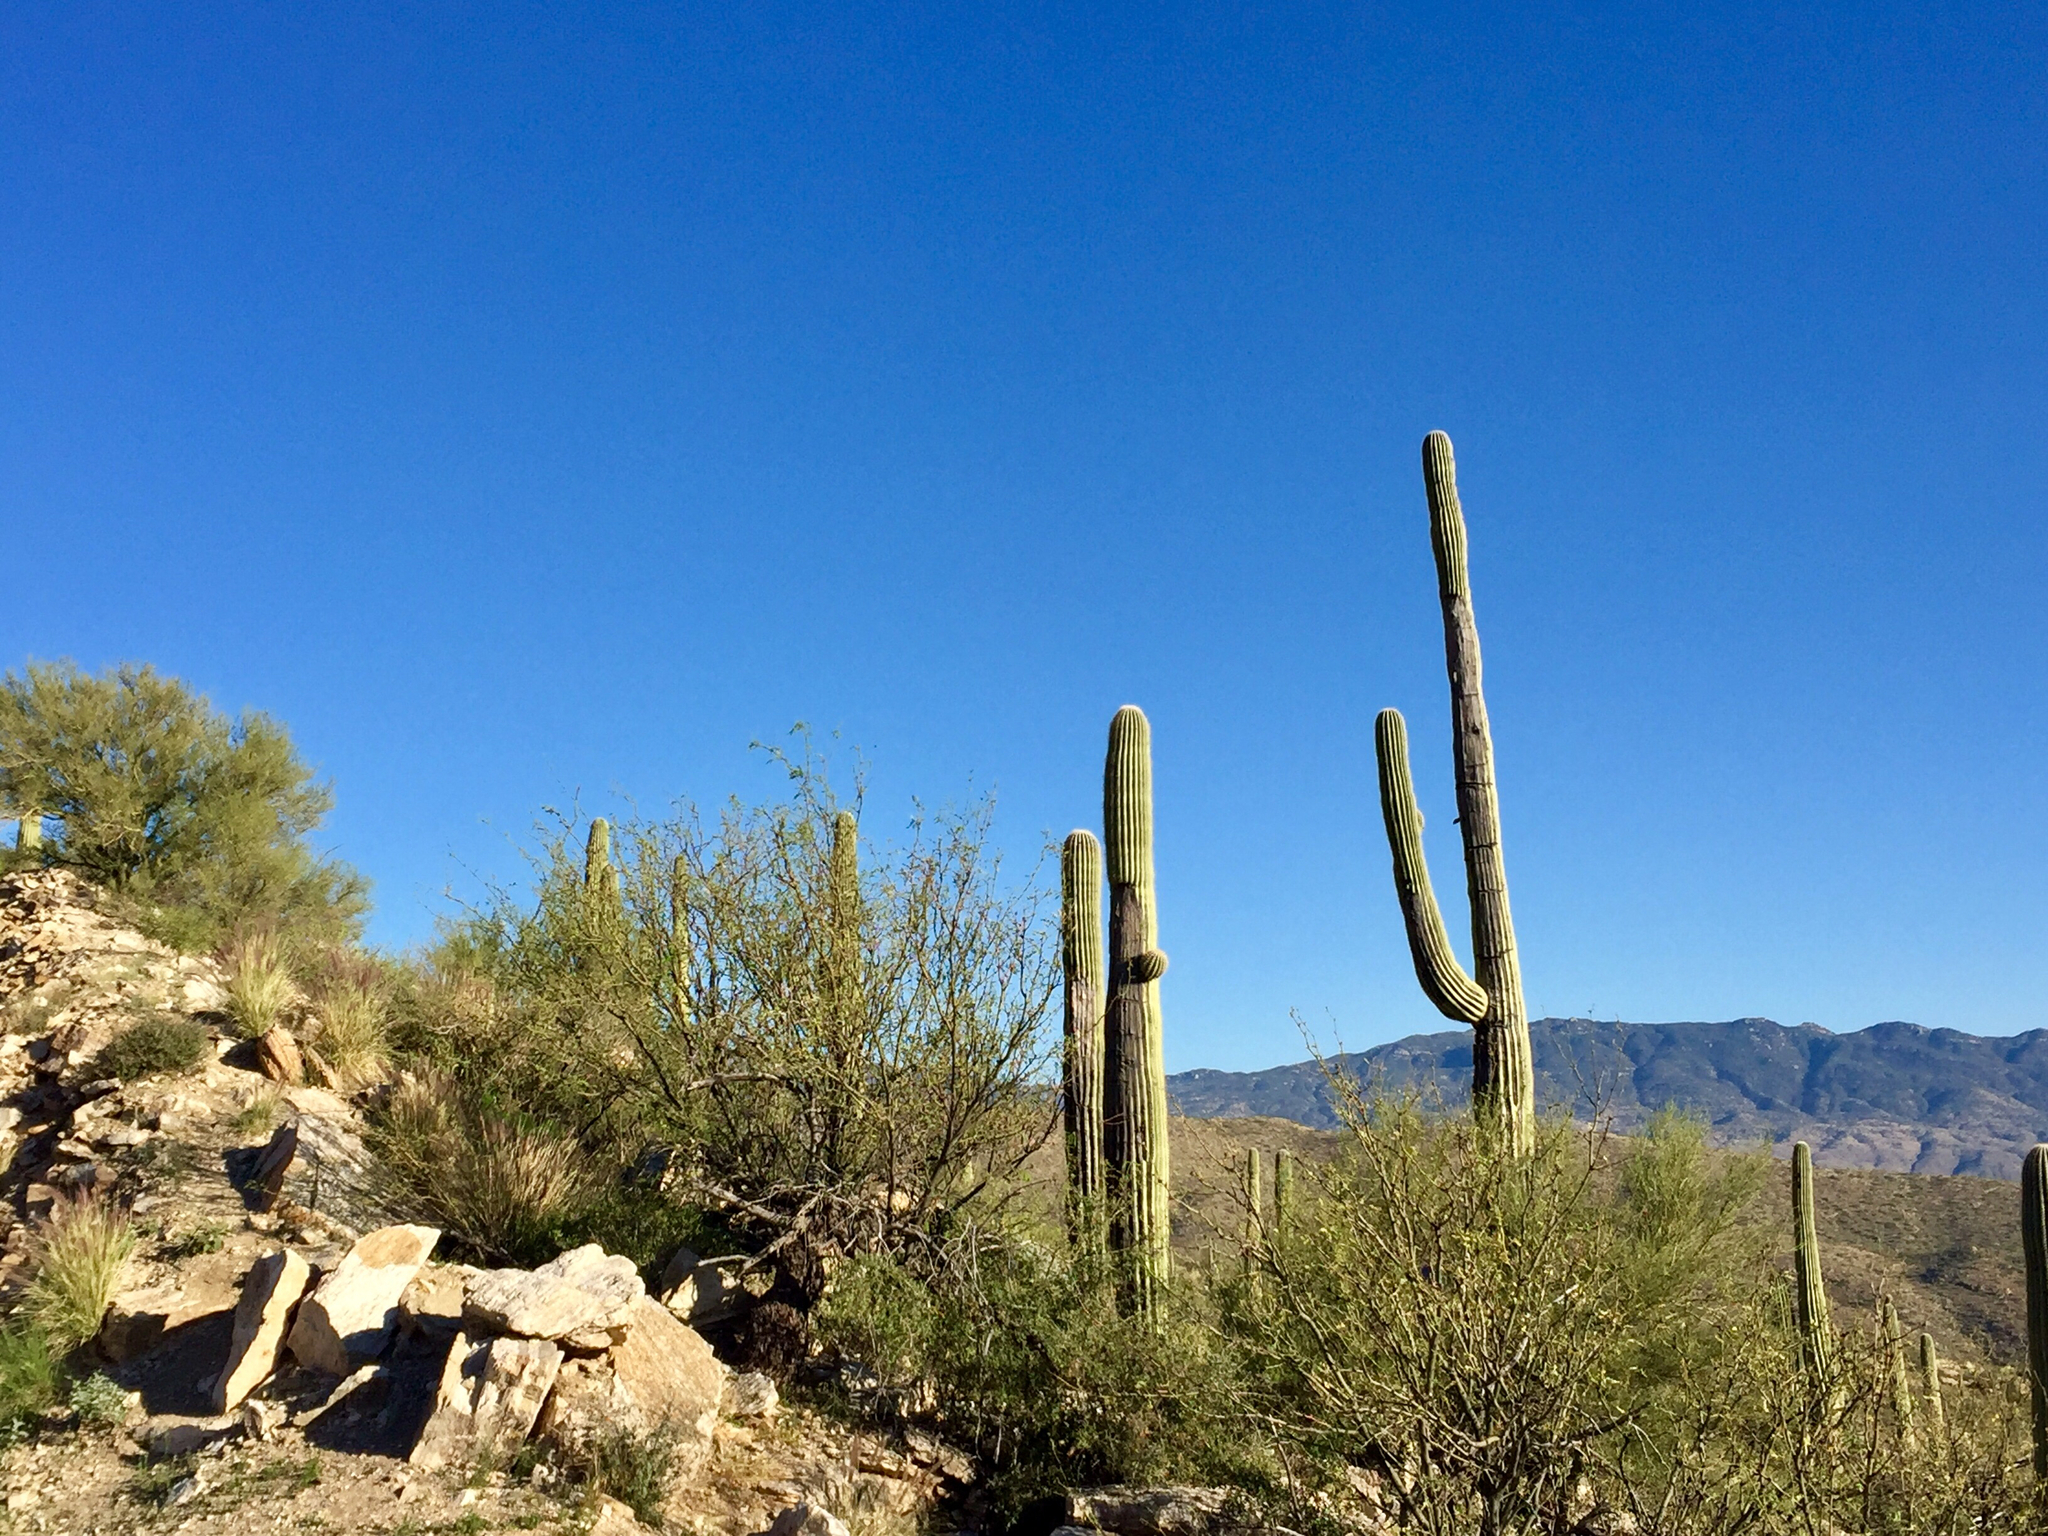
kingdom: Plantae
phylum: Tracheophyta
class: Magnoliopsida
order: Caryophyllales
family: Cactaceae
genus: Carnegiea
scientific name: Carnegiea gigantea
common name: Saguaro
